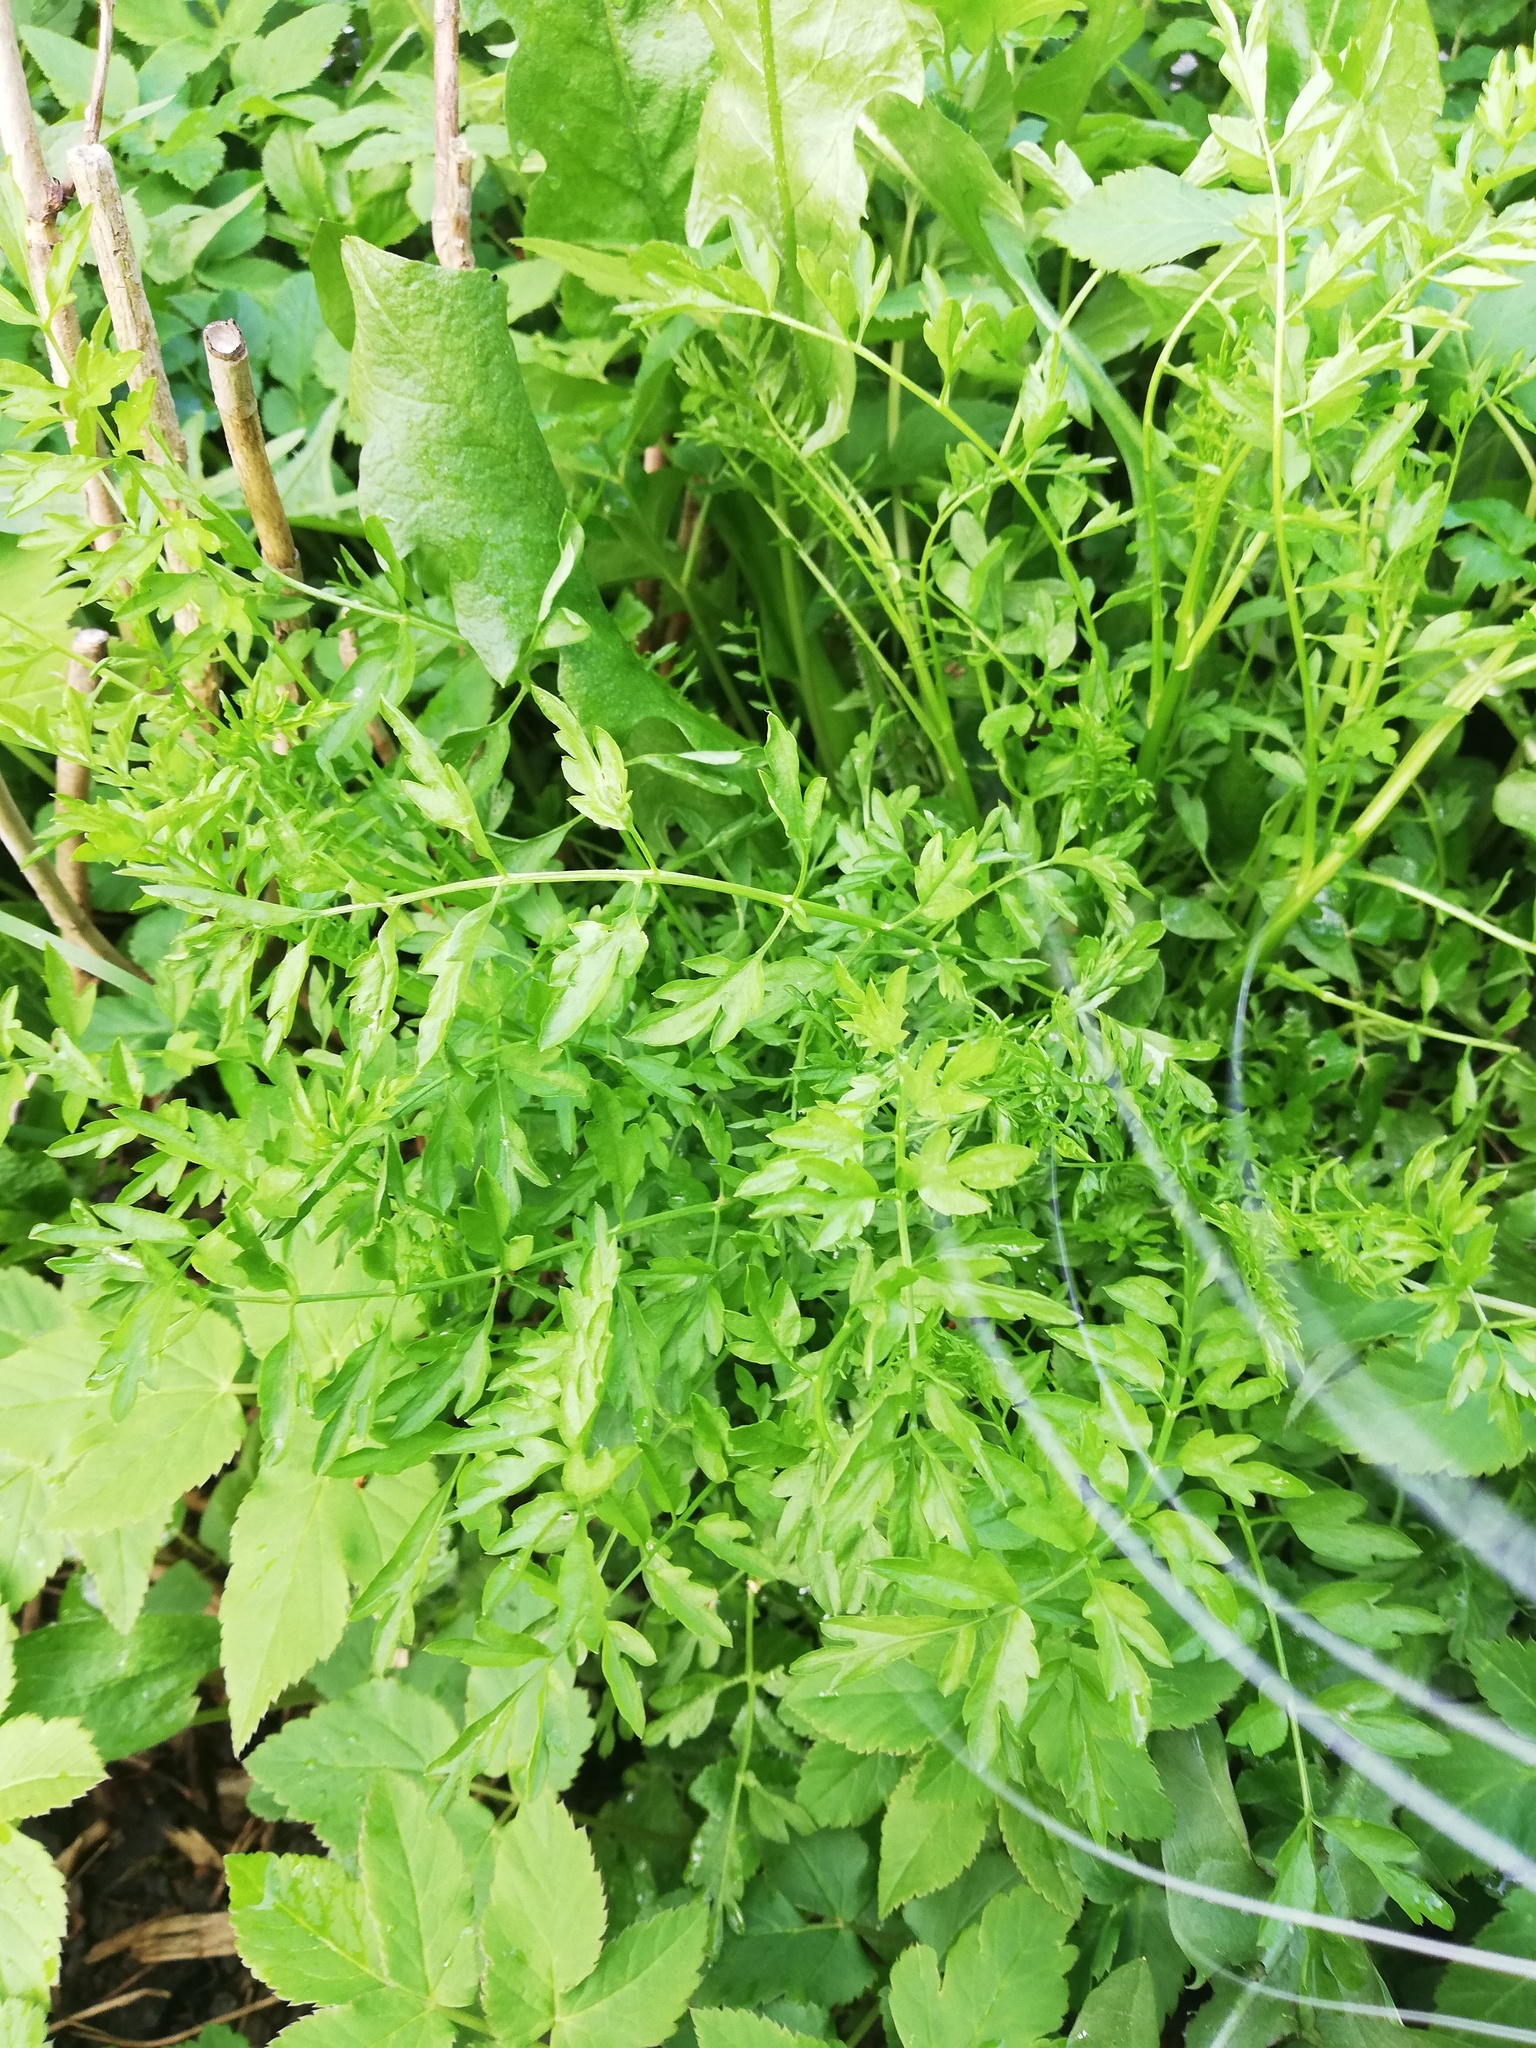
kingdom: Plantae
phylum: Tracheophyta
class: Magnoliopsida
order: Brassicales
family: Brassicaceae
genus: Cardamine
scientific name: Cardamine impatiens
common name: Narrow-leaved bitter-cress
